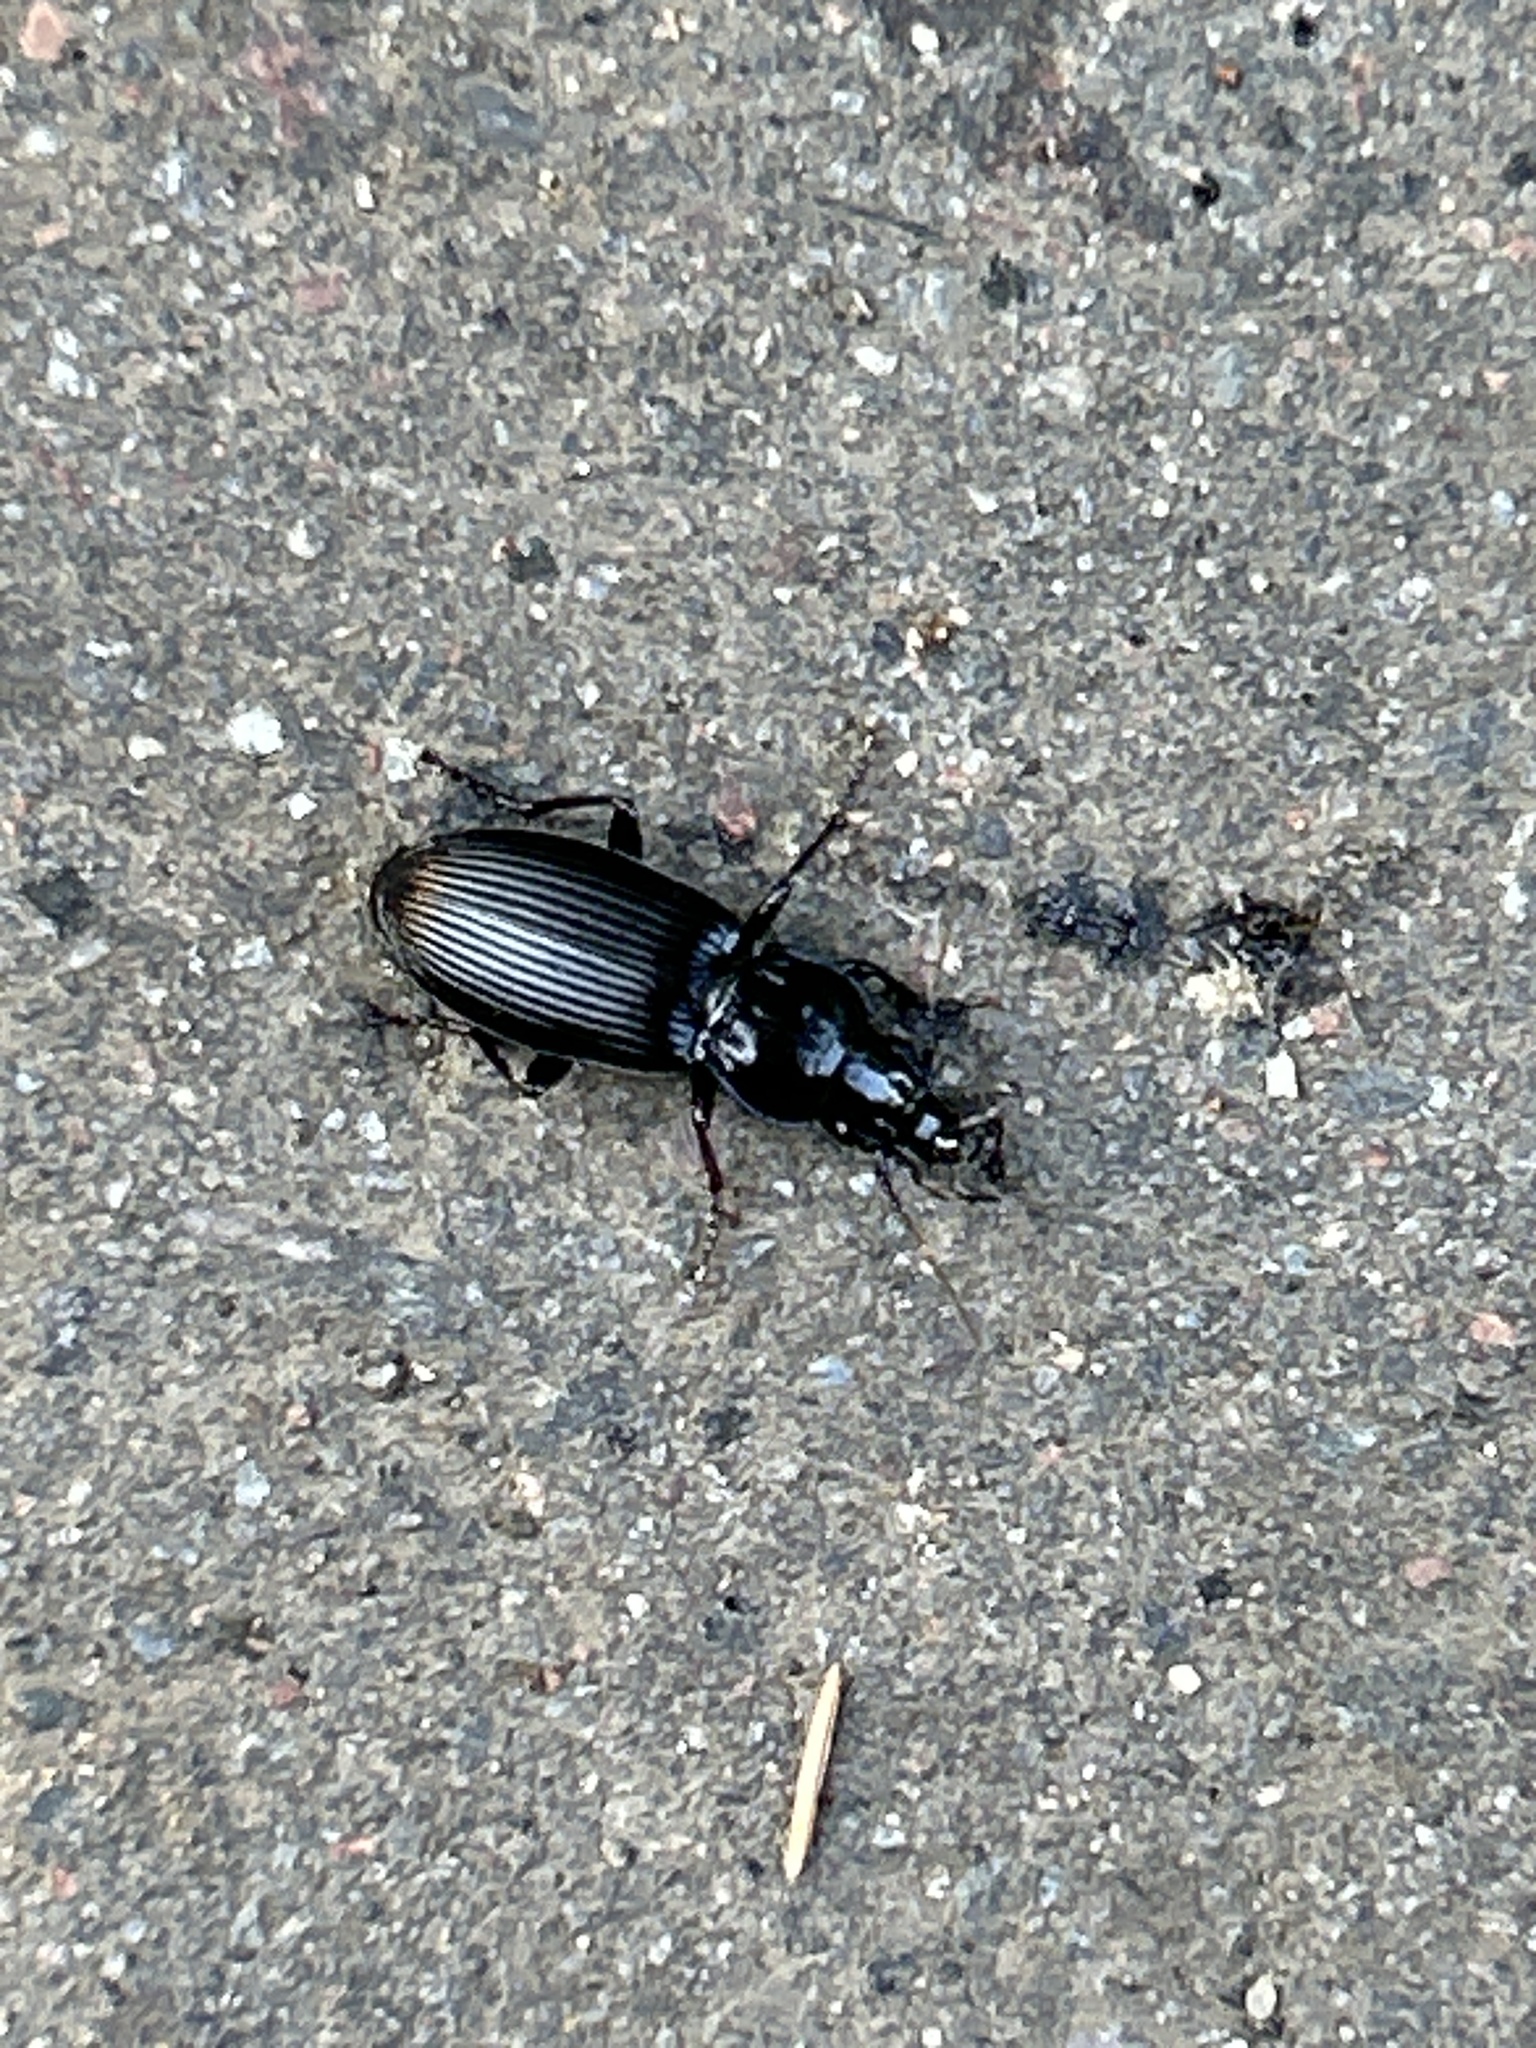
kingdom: Animalia
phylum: Arthropoda
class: Insecta
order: Coleoptera
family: Carabidae
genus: Pterostichus
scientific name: Pterostichus melanarius
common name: European dark harp ground beetle
